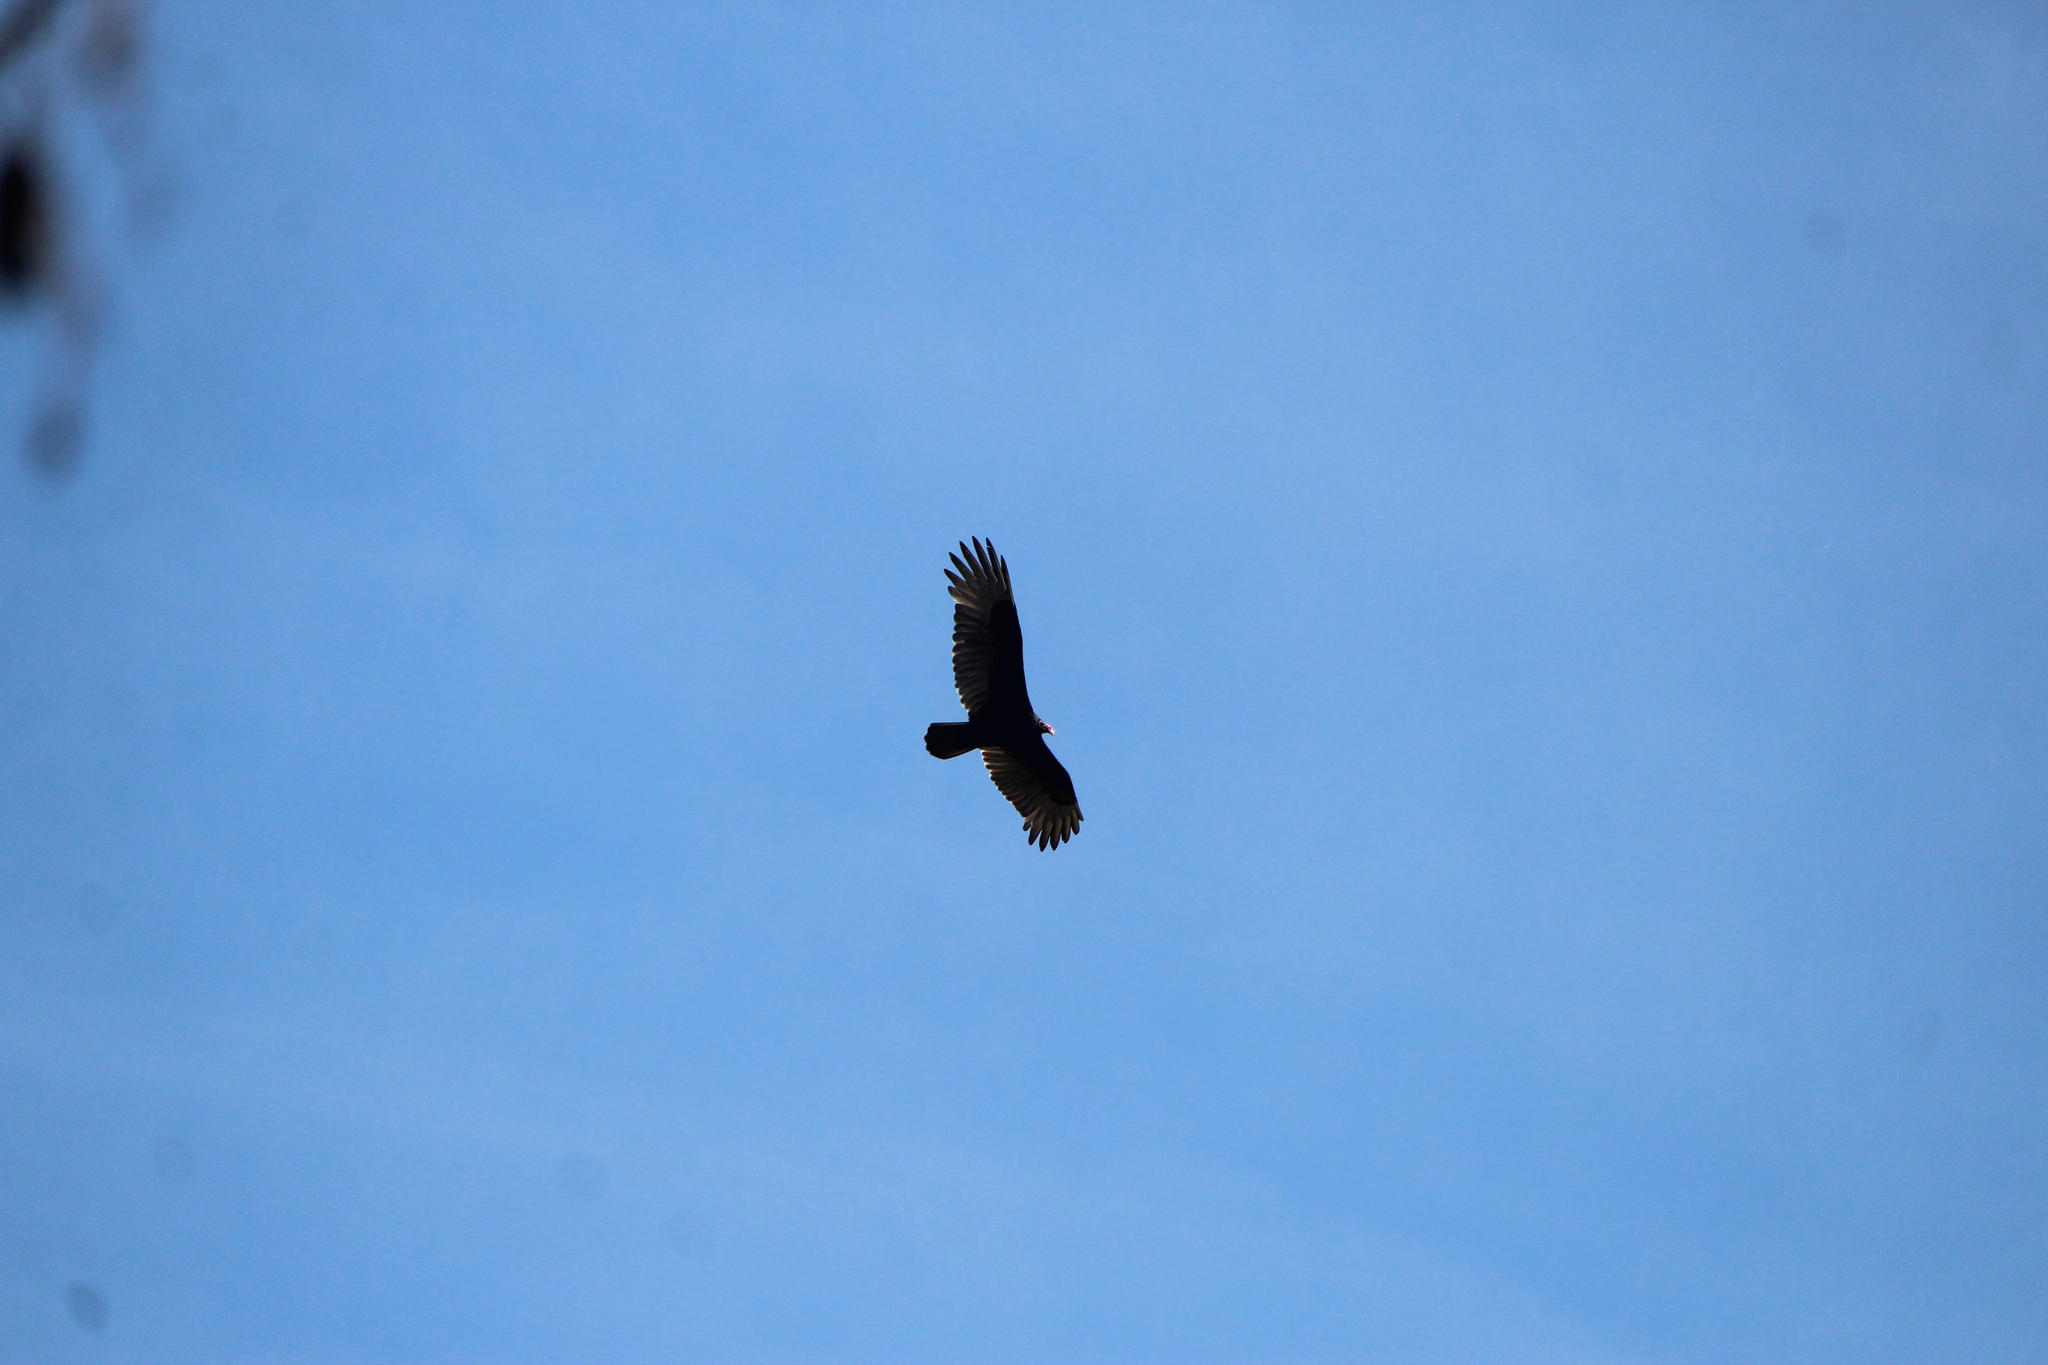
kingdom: Animalia
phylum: Chordata
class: Aves
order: Accipitriformes
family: Cathartidae
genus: Cathartes
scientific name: Cathartes aura
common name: Turkey vulture
